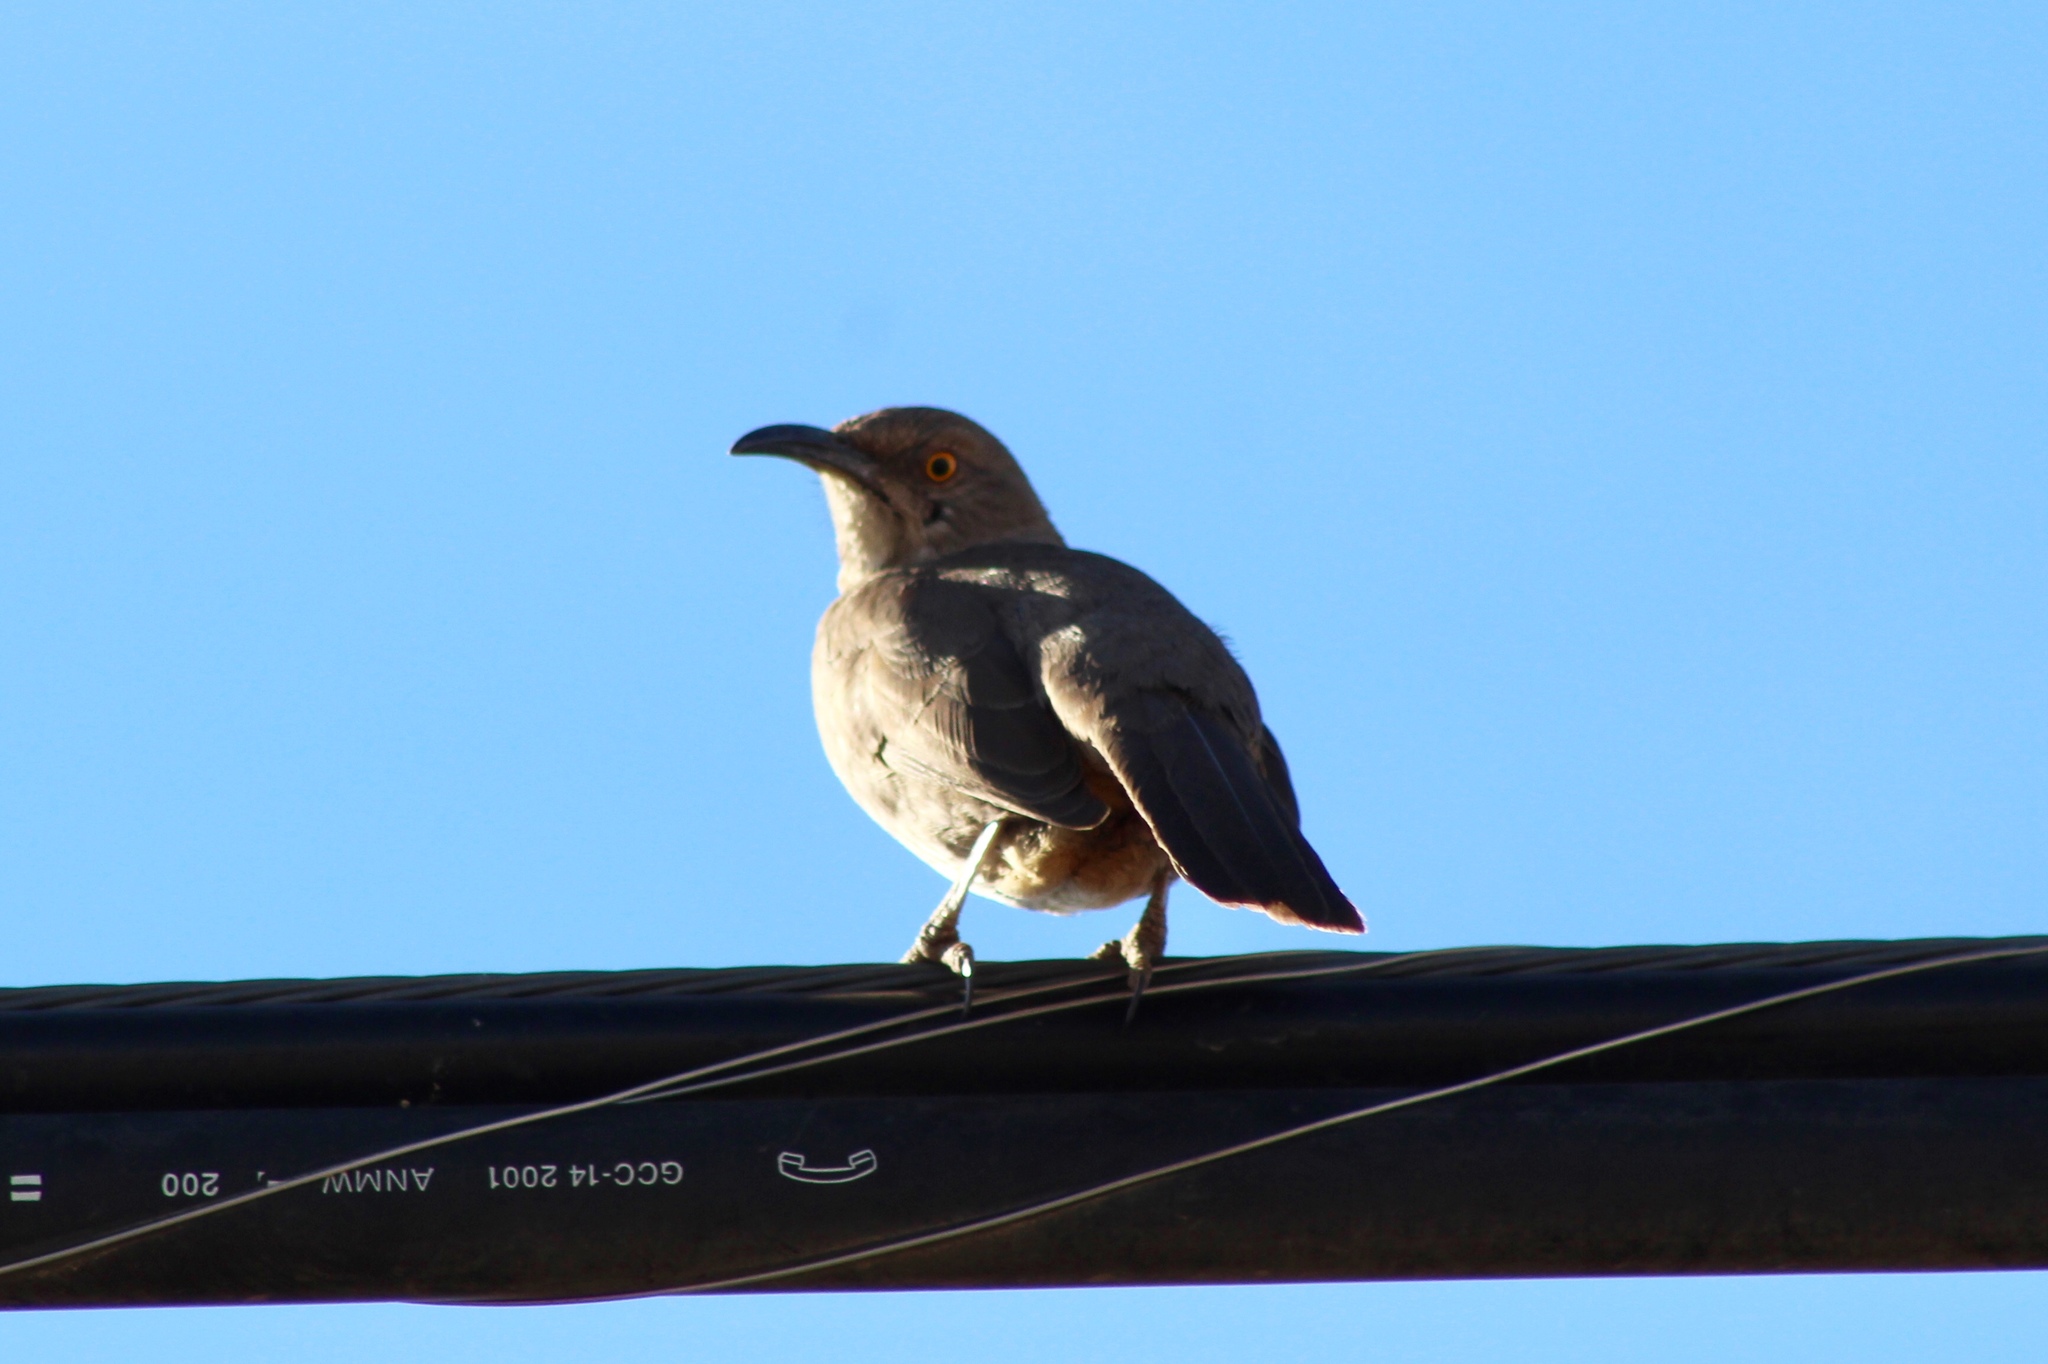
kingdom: Animalia
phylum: Chordata
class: Aves
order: Passeriformes
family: Mimidae
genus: Toxostoma
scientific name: Toxostoma curvirostre
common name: Curve-billed thrasher
